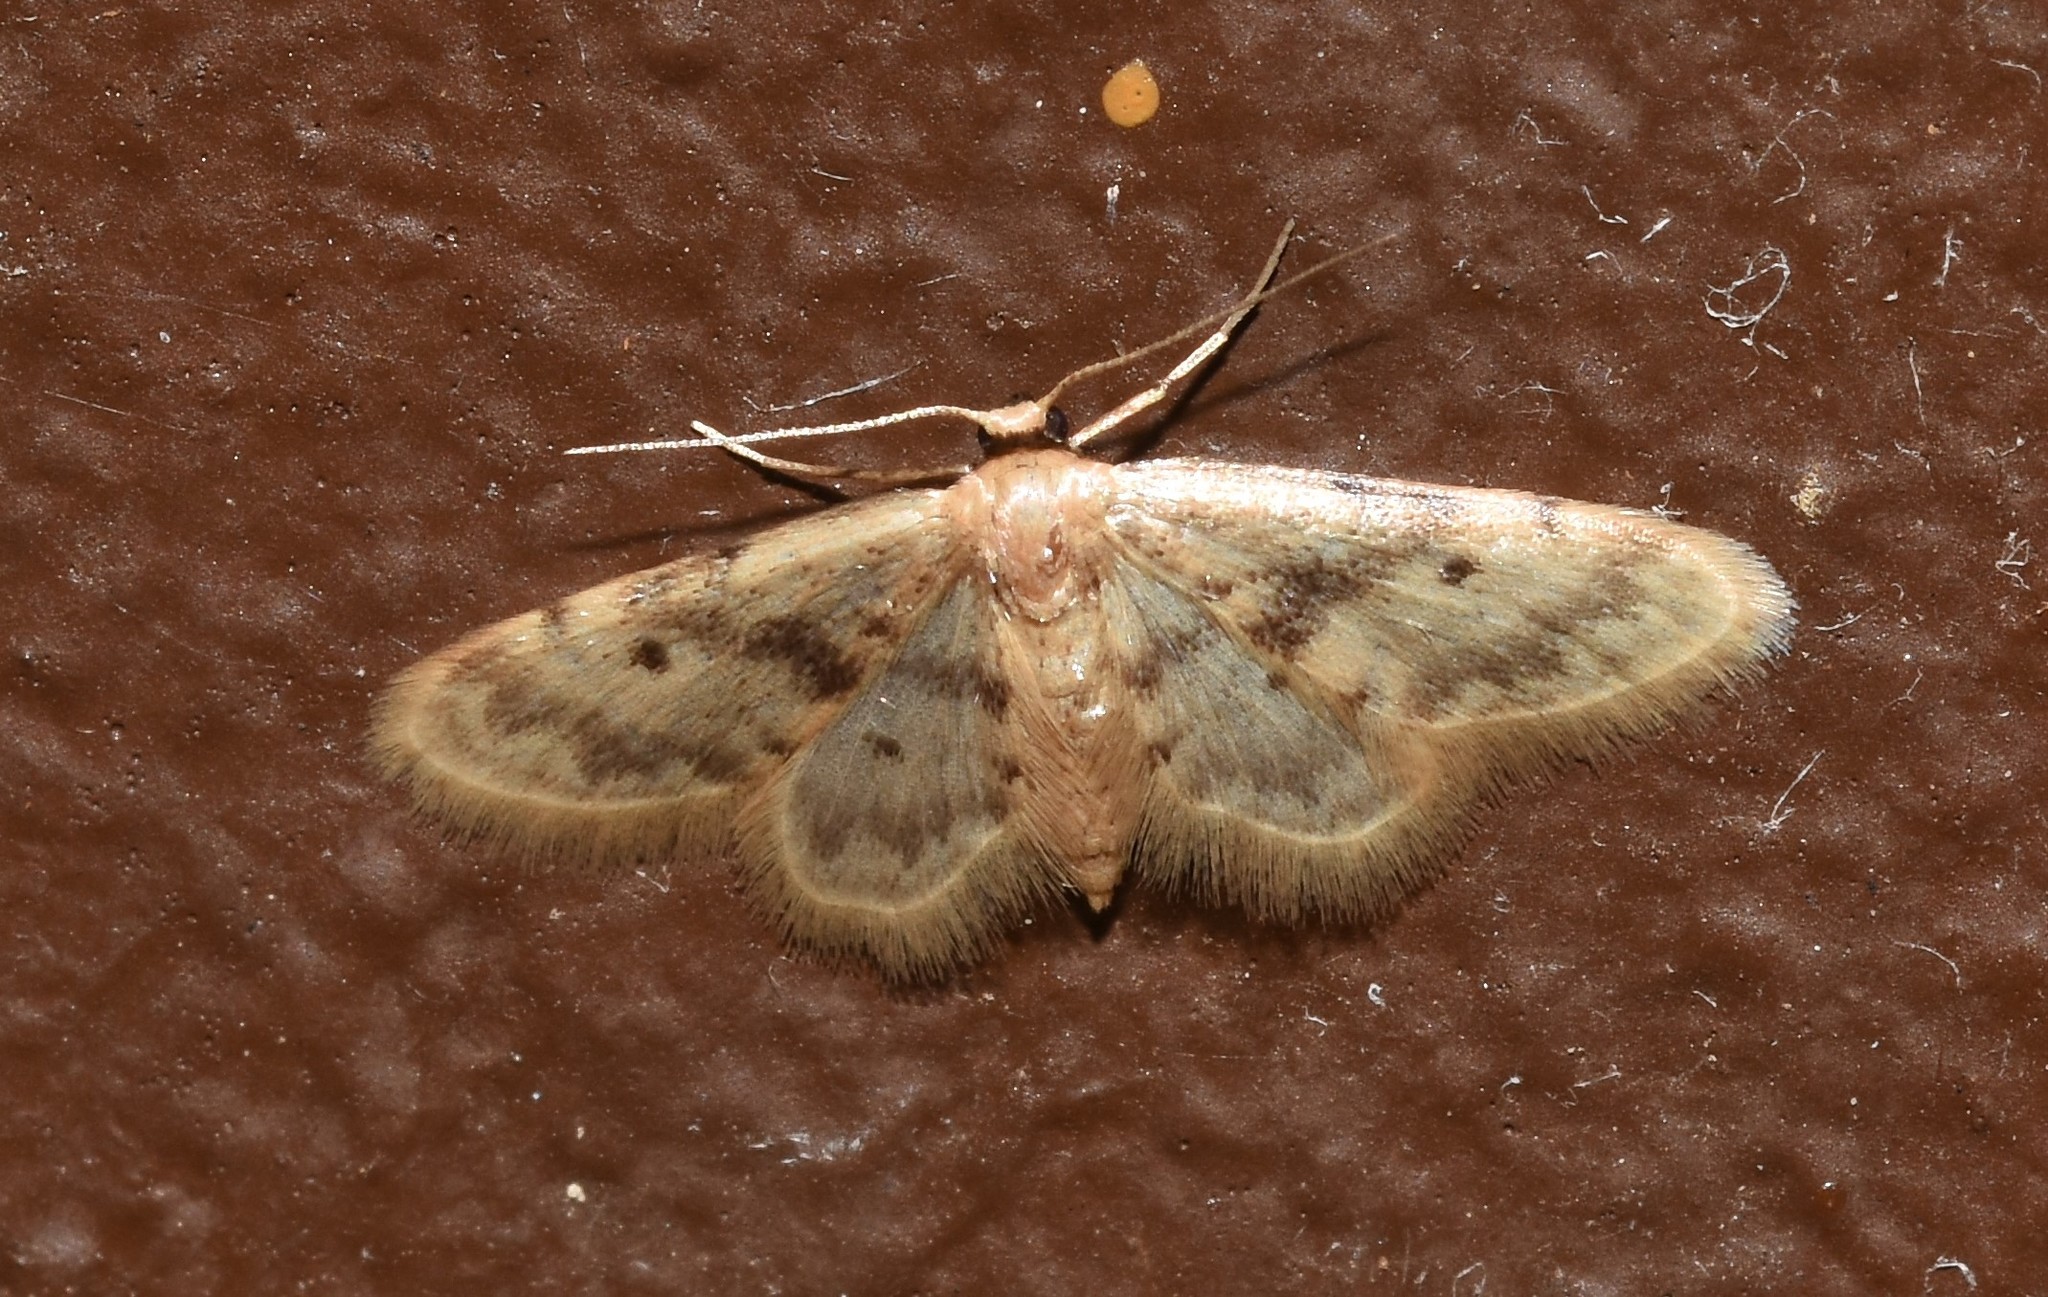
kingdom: Animalia
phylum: Arthropoda
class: Insecta
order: Lepidoptera
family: Geometridae
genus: Idaea
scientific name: Idaea bonifata
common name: Fortunate wave
